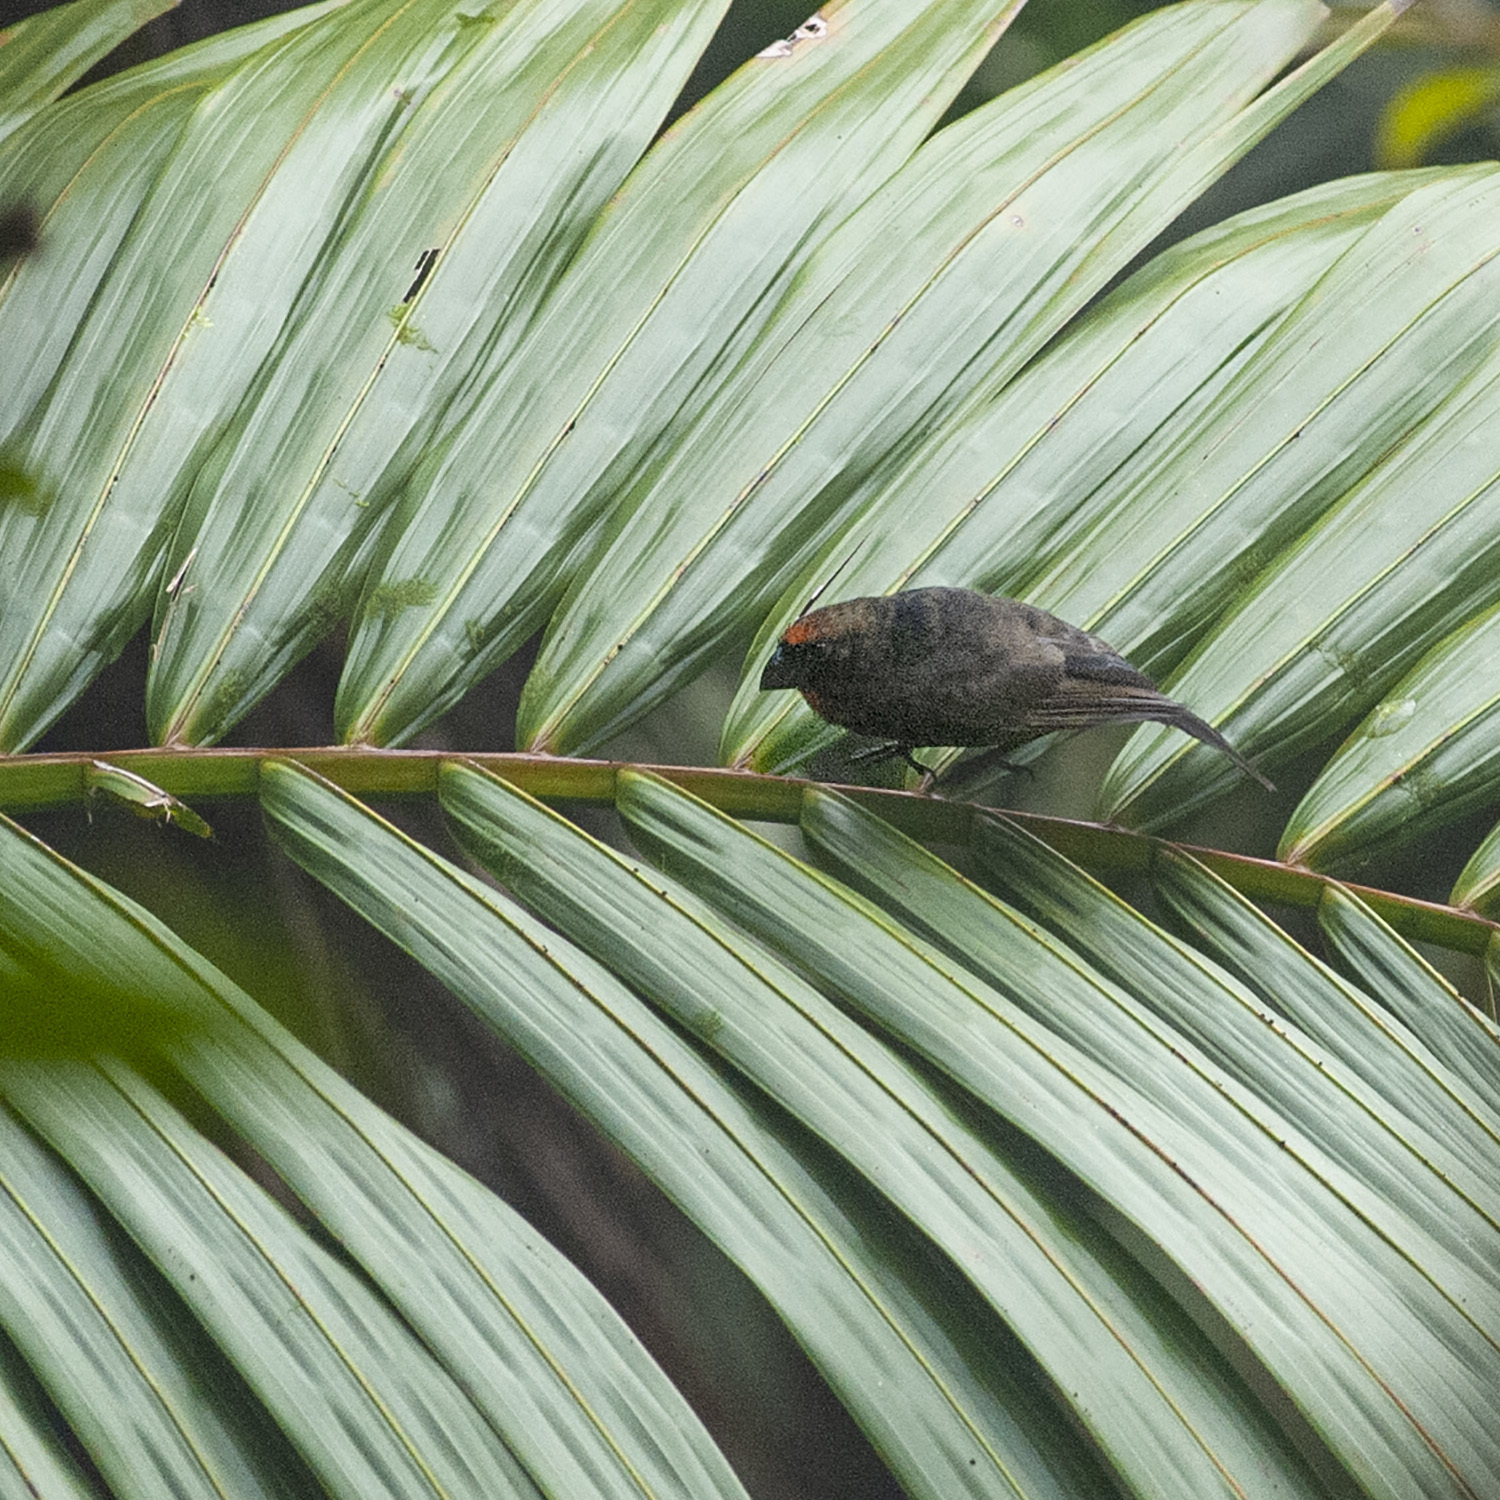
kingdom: Animalia
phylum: Chordata
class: Aves
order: Passeriformes
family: Thraupidae
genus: Melopyrrha
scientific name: Melopyrrha portoricensis
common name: Puerto rican bullfinch
